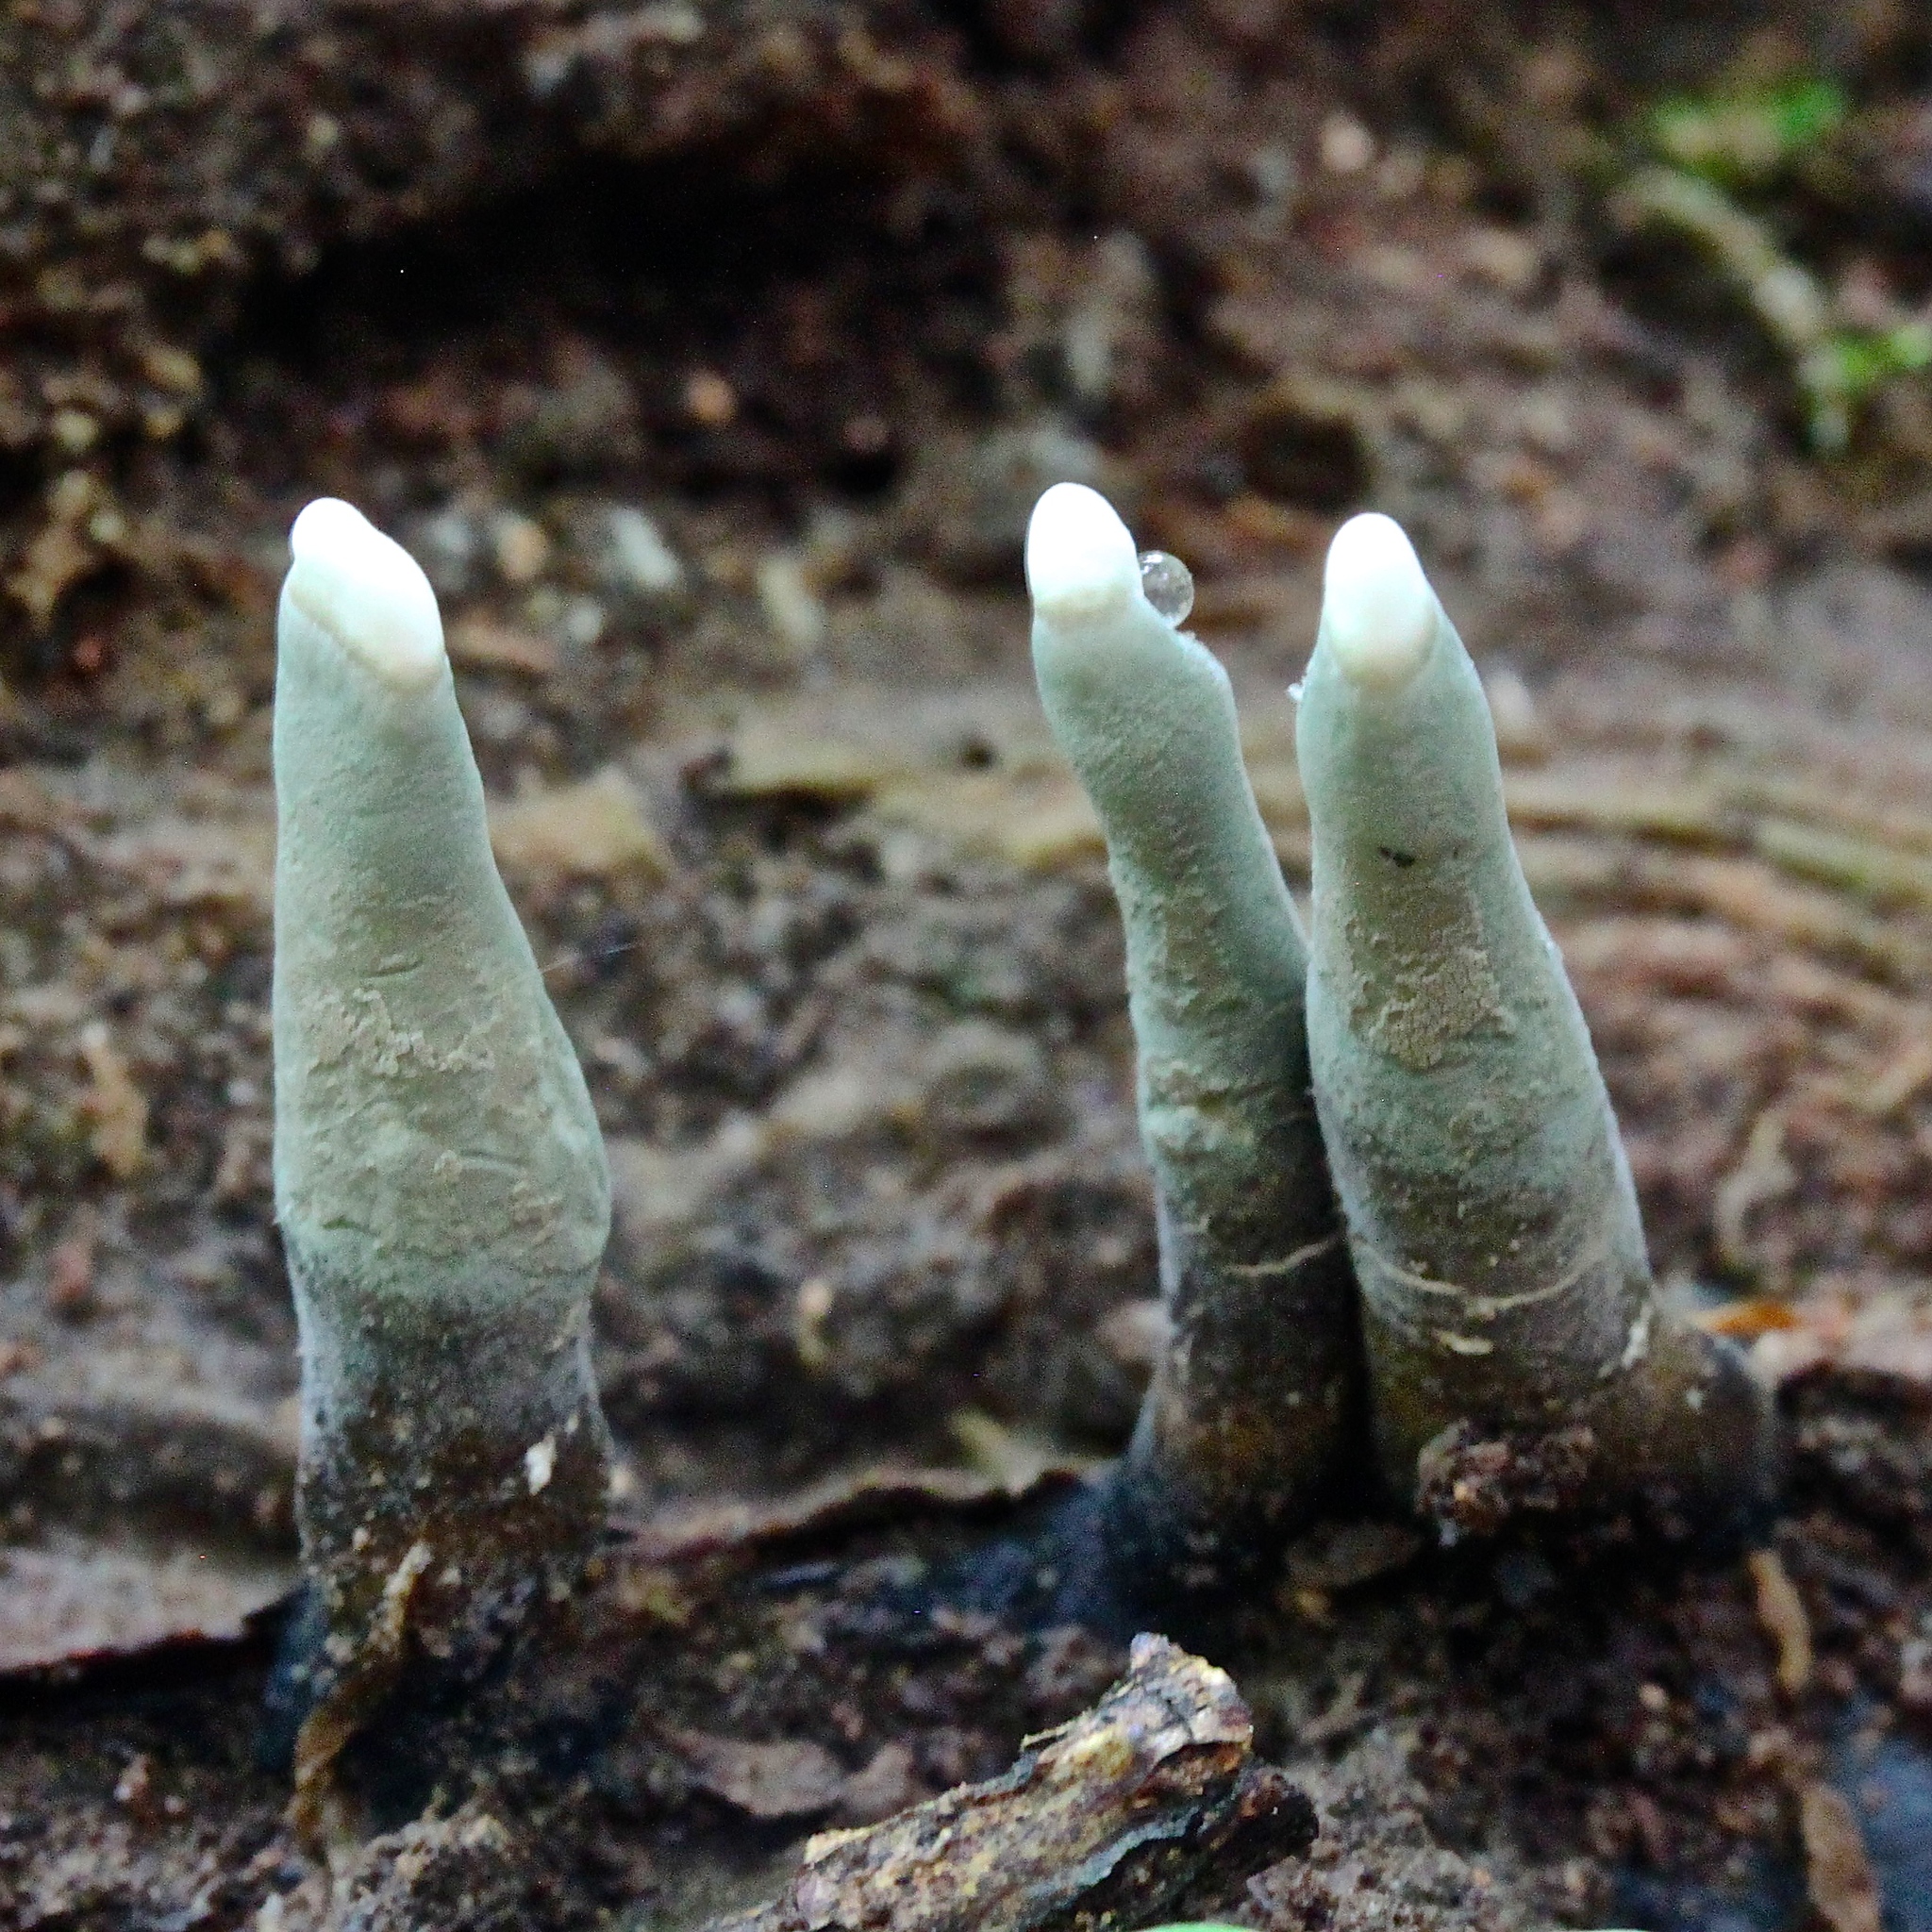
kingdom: Fungi
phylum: Ascomycota
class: Sordariomycetes
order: Xylariales
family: Xylariaceae
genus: Xylaria
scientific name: Xylaria polymorpha
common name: Dead man's fingers
